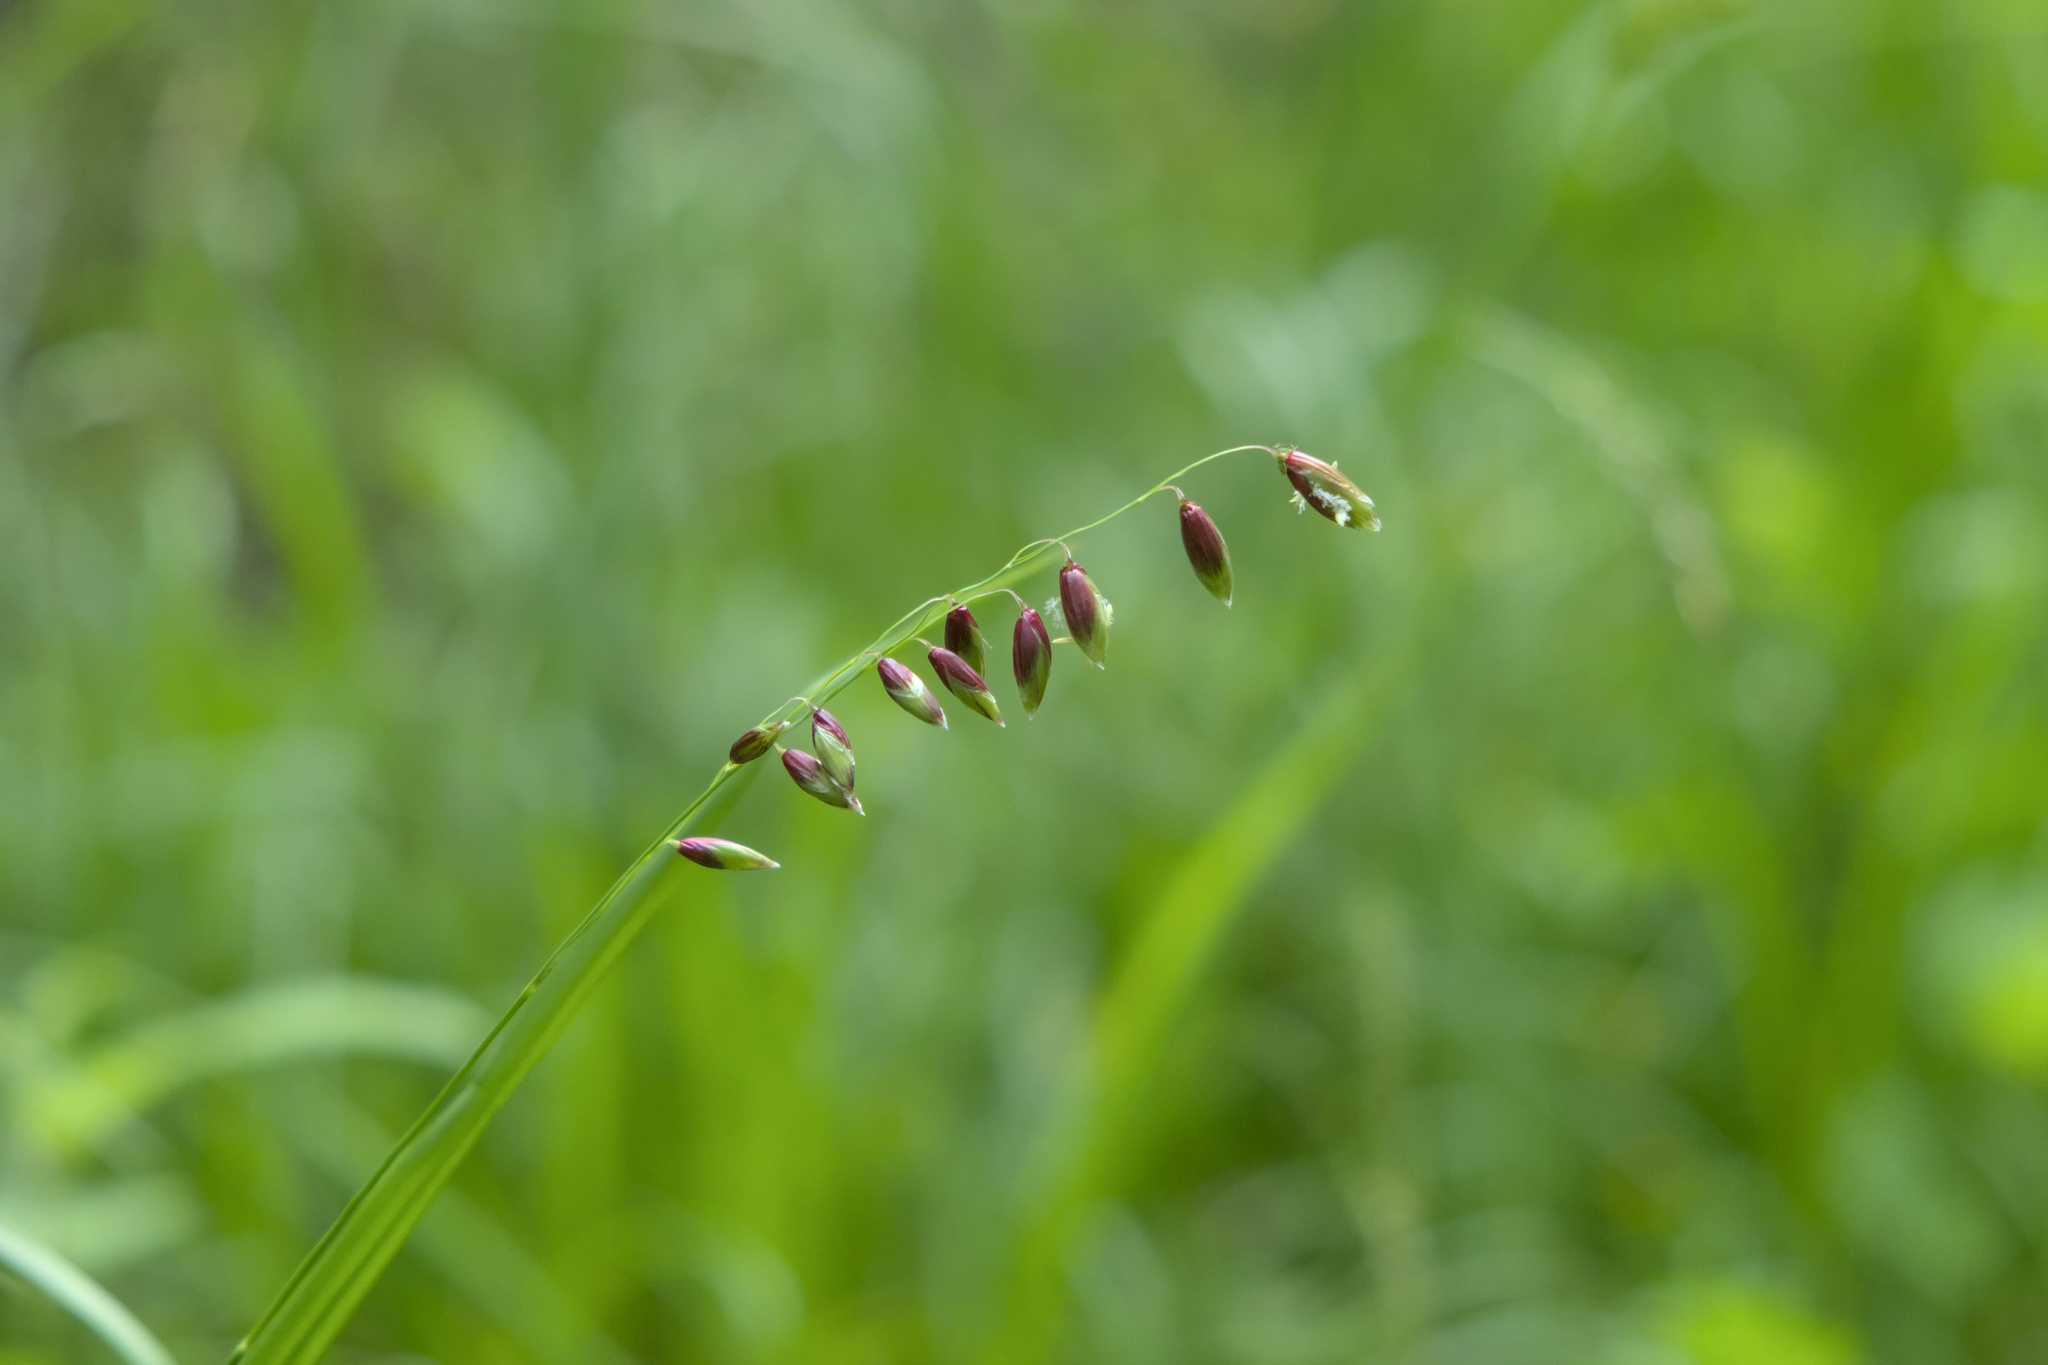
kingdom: Plantae
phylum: Tracheophyta
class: Liliopsida
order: Poales
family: Poaceae
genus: Melica
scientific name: Melica nutans
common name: Mountain melick
